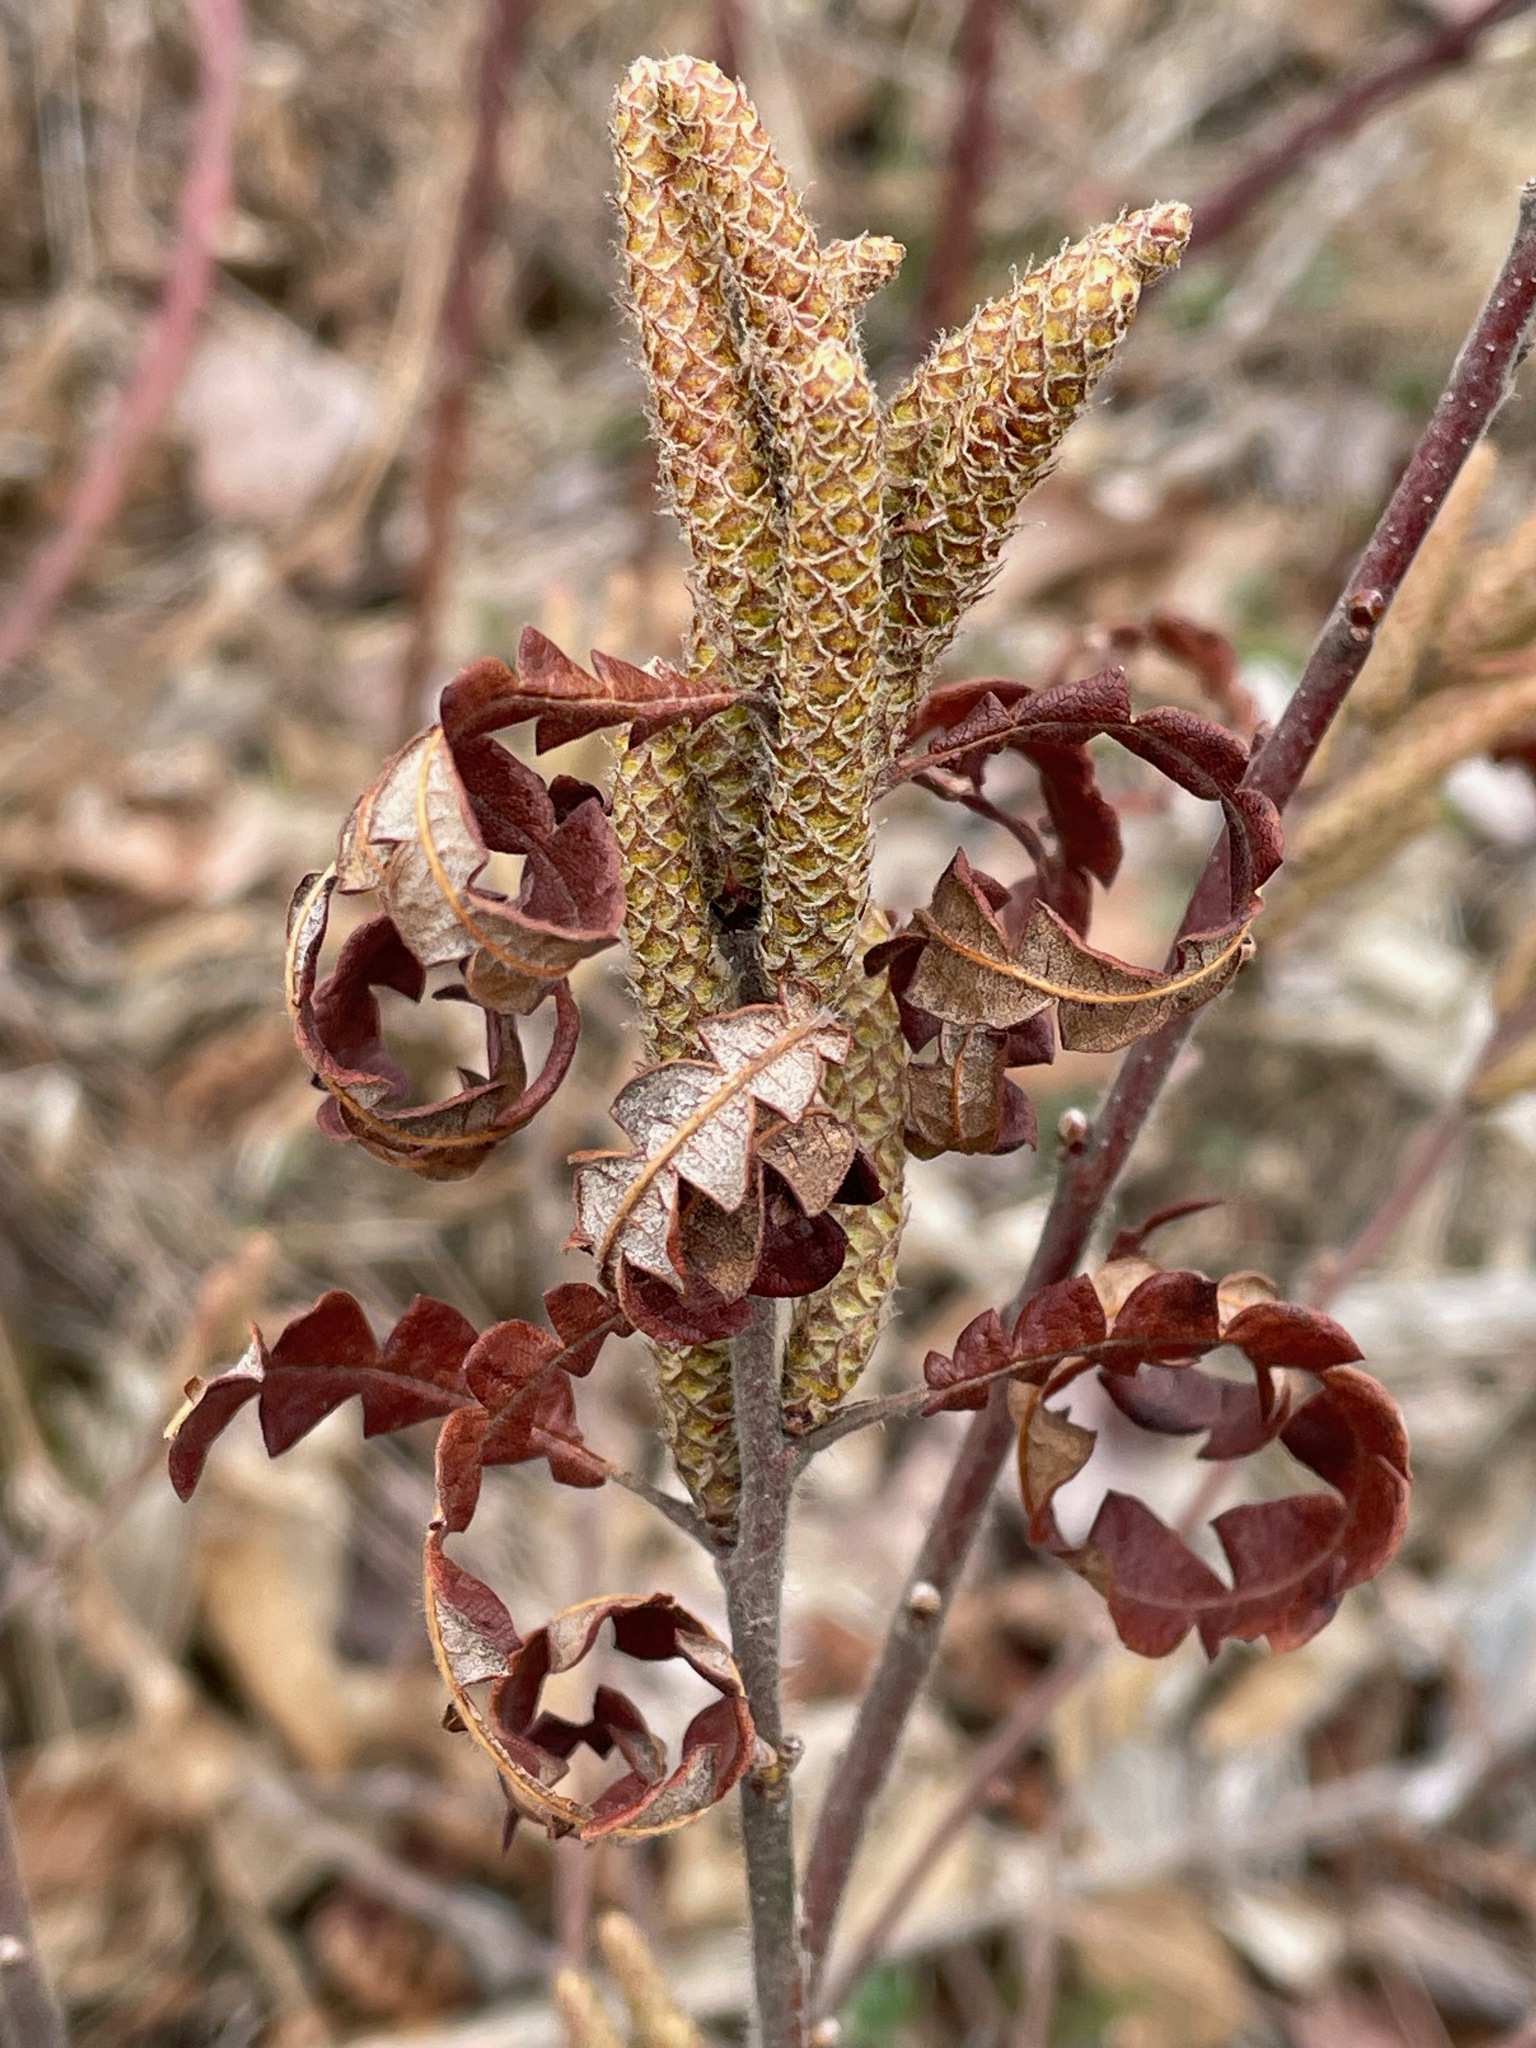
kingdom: Plantae
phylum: Tracheophyta
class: Magnoliopsida
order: Fagales
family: Myricaceae
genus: Comptonia
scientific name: Comptonia peregrina
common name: Sweet-fern
